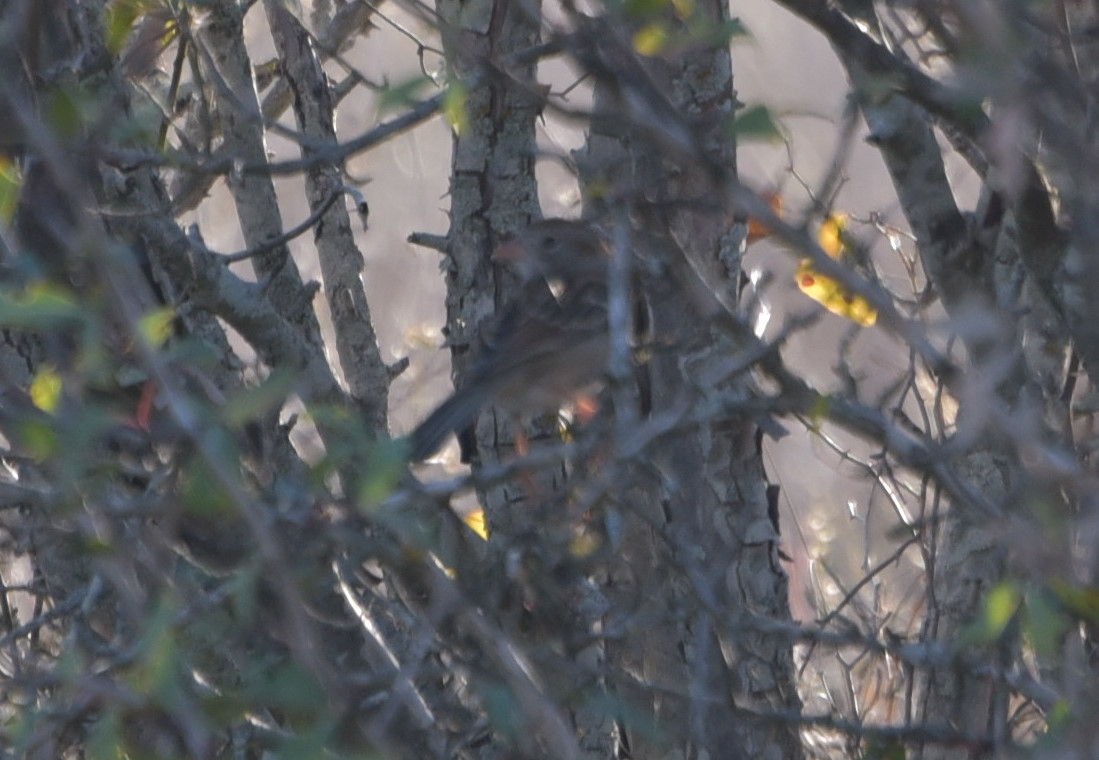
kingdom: Animalia
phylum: Chordata
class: Aves
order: Passeriformes
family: Passerellidae
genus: Spizella
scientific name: Spizella pusilla
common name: Field sparrow
